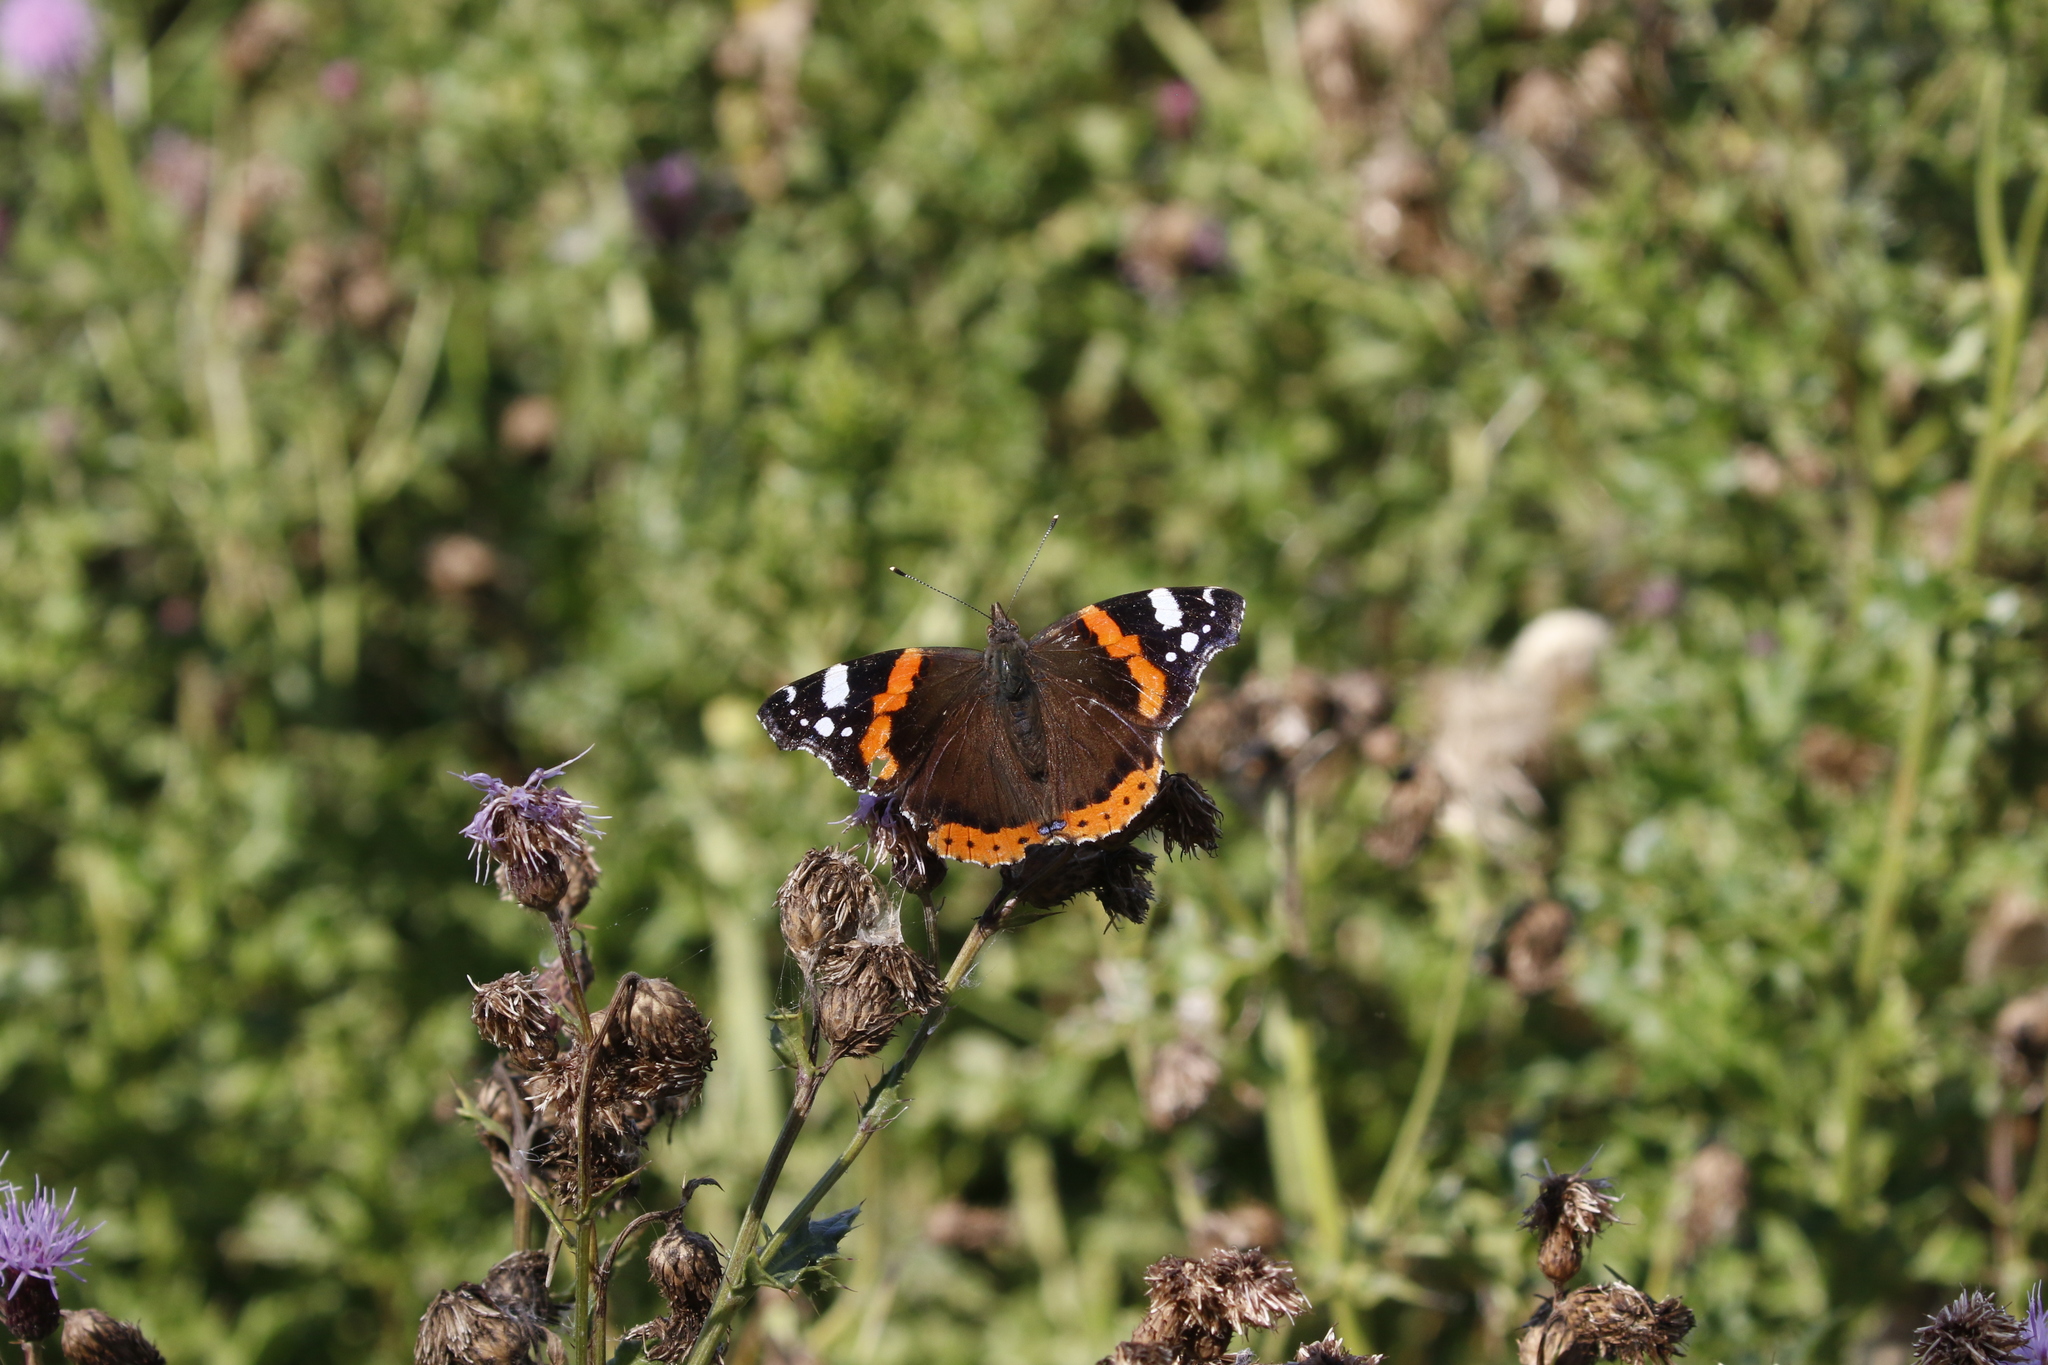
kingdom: Animalia
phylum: Arthropoda
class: Insecta
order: Lepidoptera
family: Nymphalidae
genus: Vanessa
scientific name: Vanessa atalanta
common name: Red admiral
